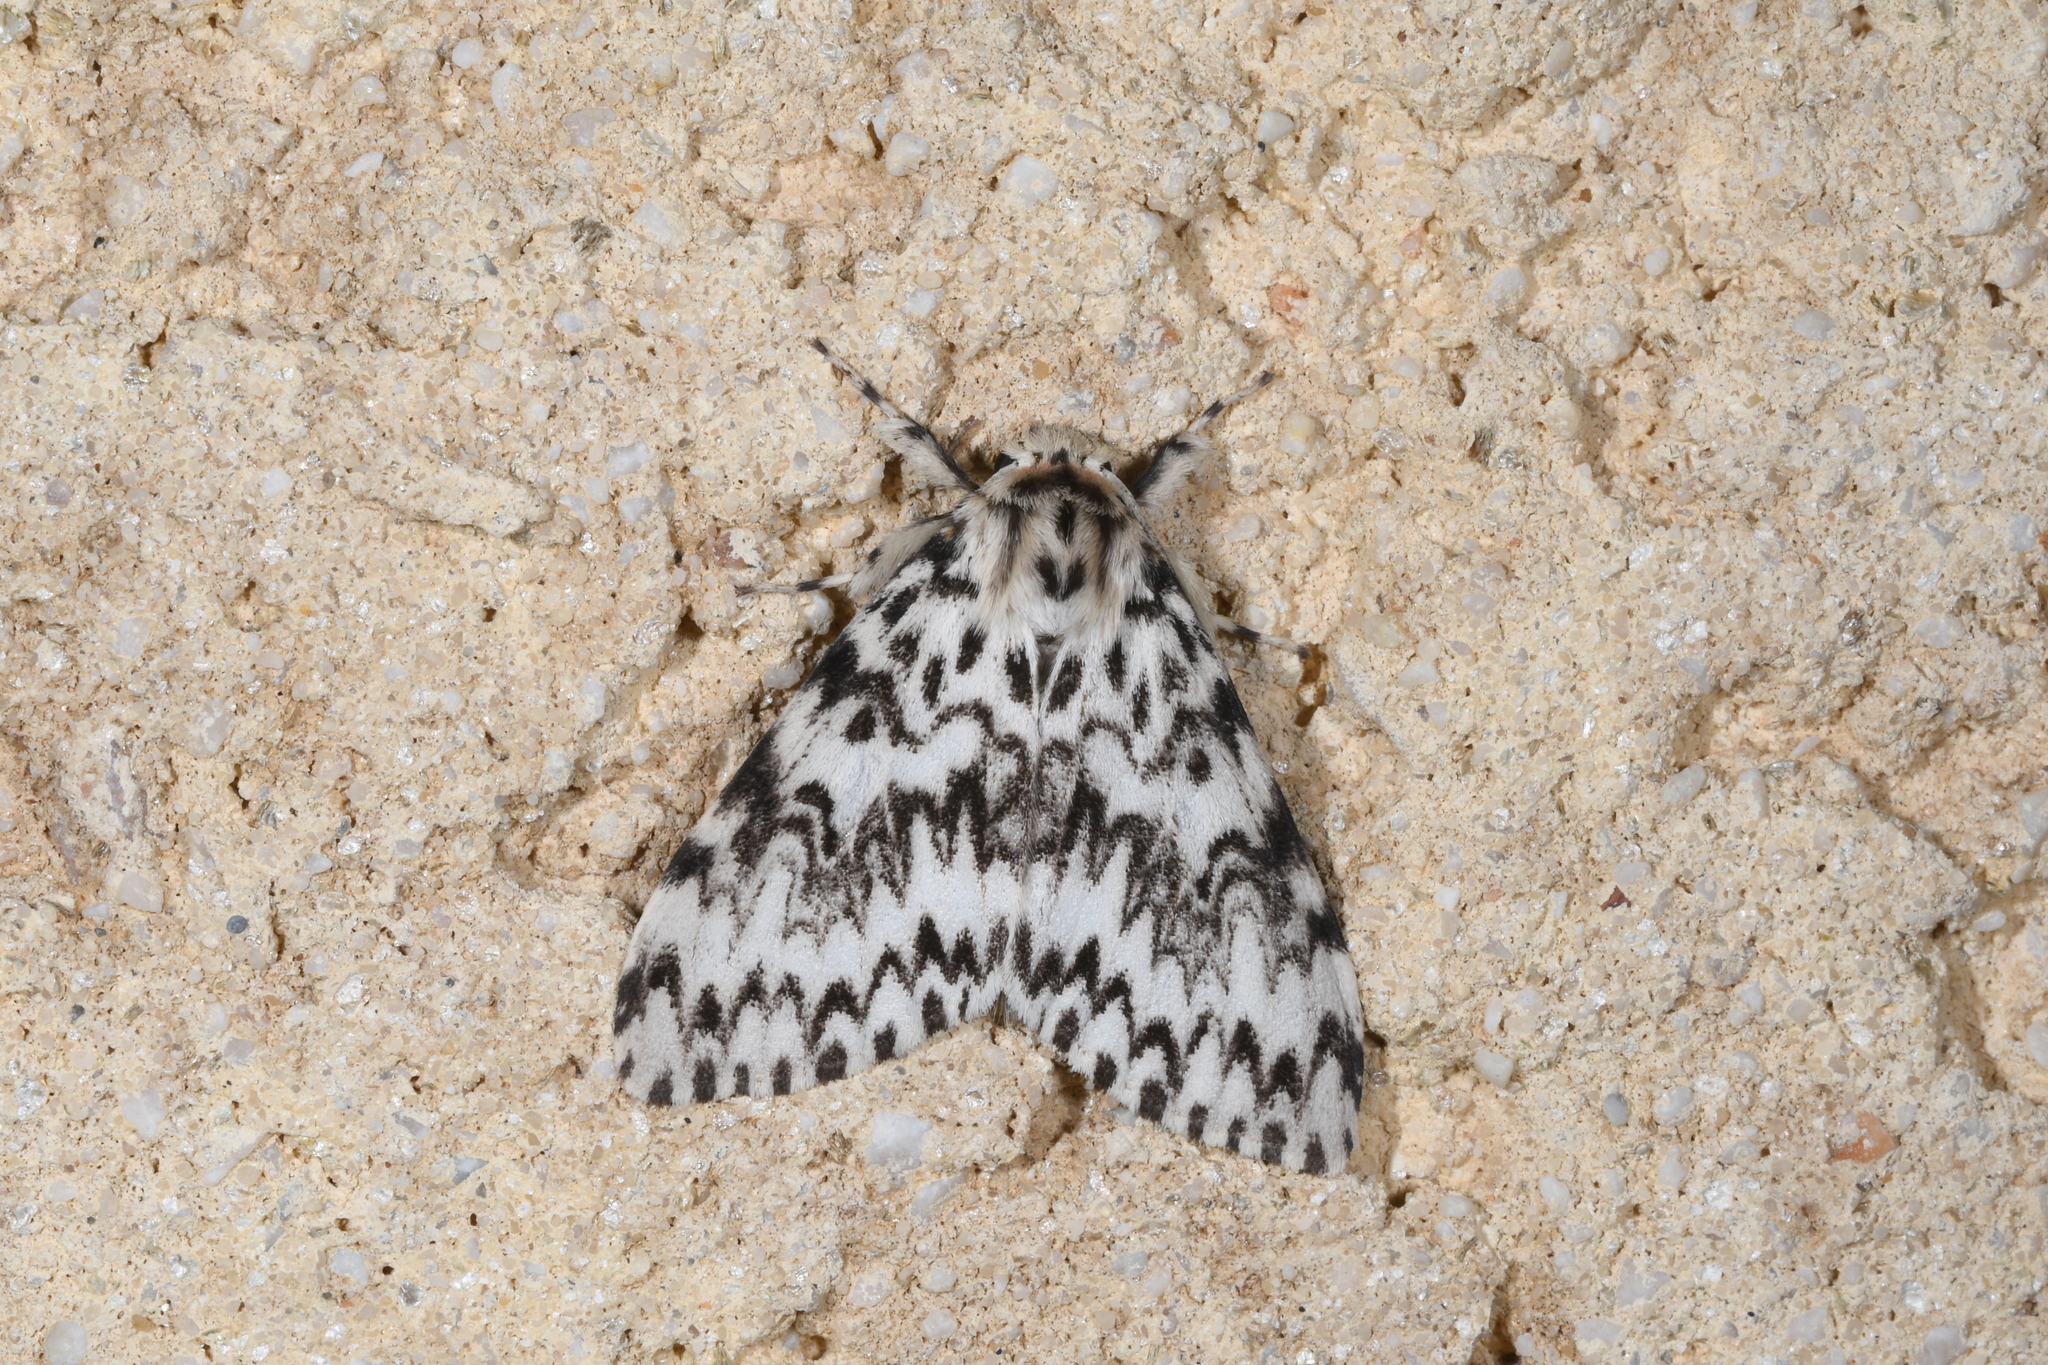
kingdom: Animalia
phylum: Arthropoda
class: Insecta
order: Lepidoptera
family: Erebidae
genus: Lymantria
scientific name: Lymantria monacha
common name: Black arches
